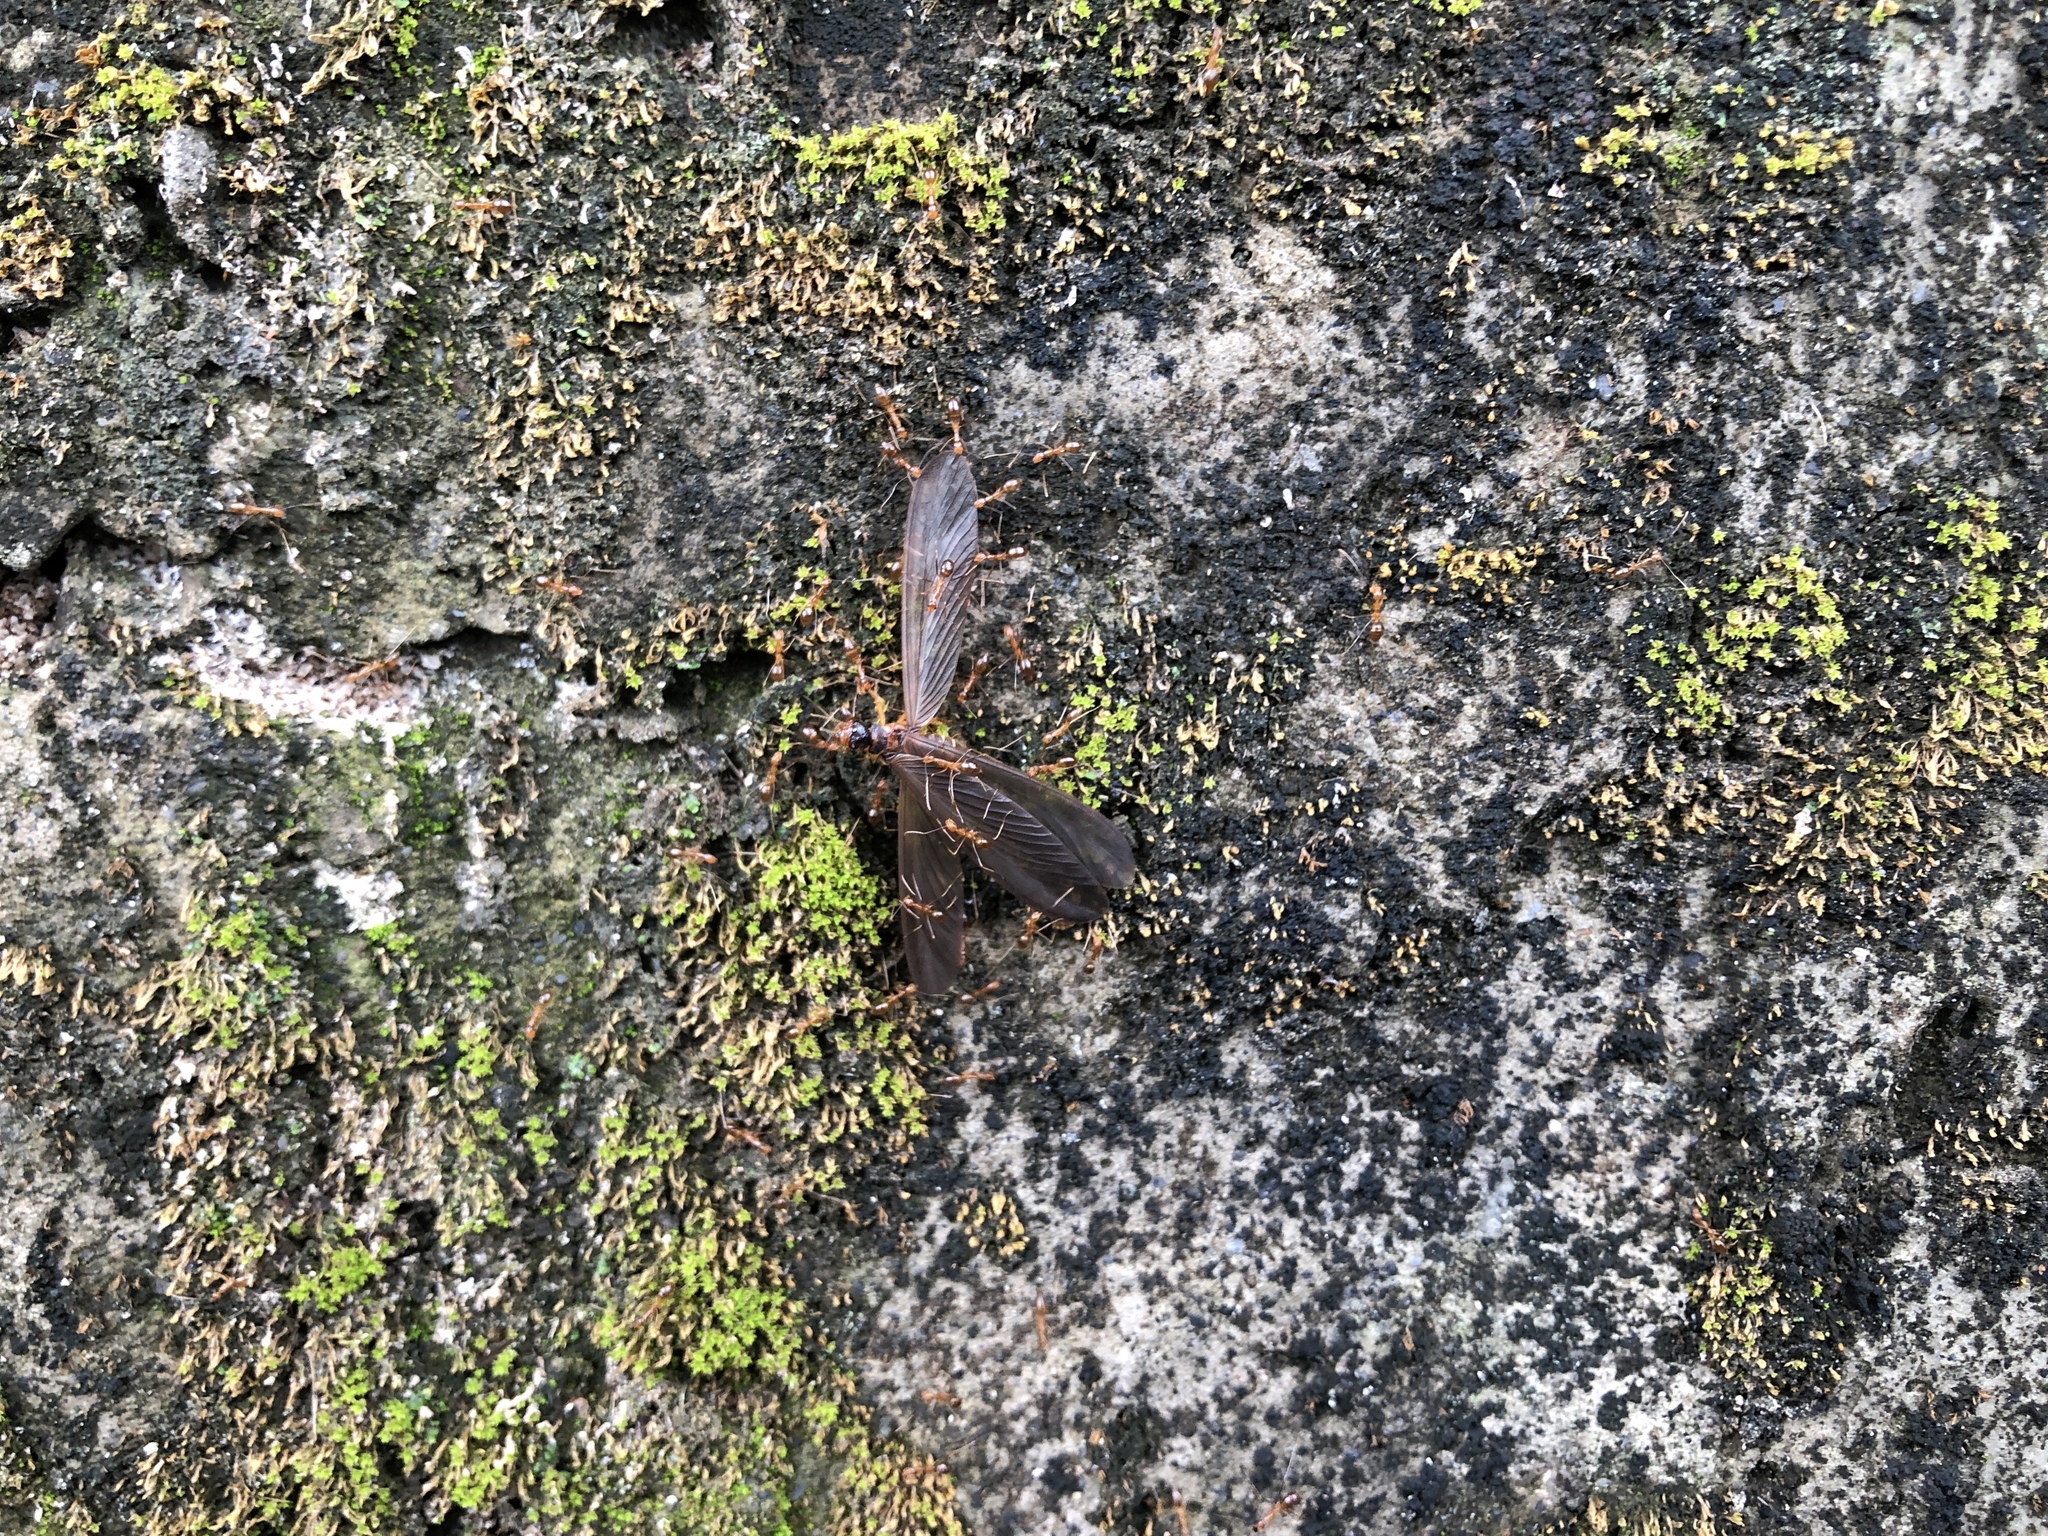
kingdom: Animalia
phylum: Arthropoda
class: Insecta
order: Blattodea
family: Termitidae
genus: Odontotermes
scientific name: Odontotermes formosanus
